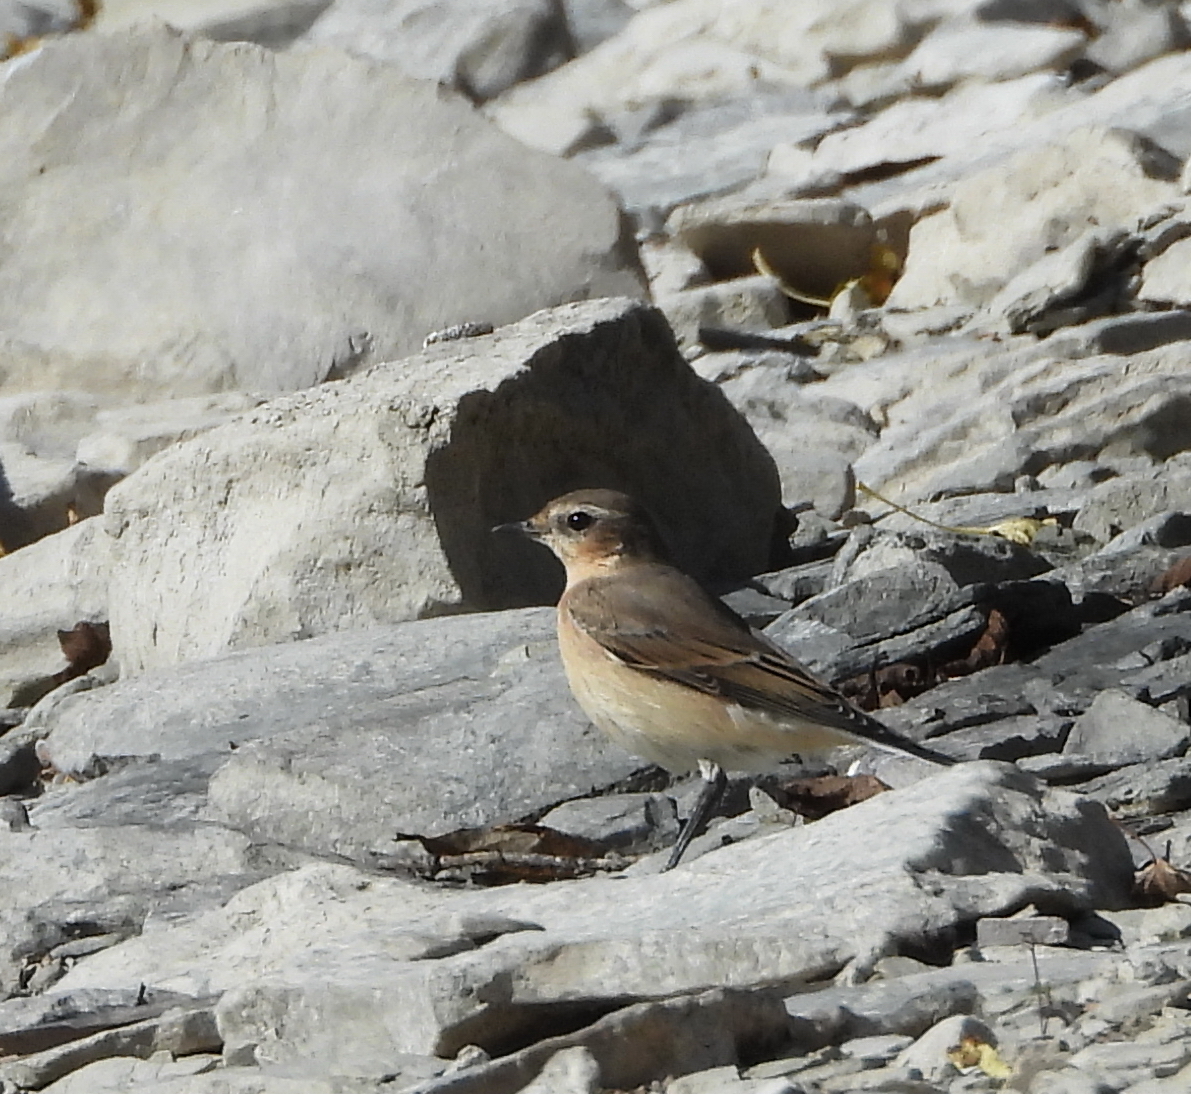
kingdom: Animalia
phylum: Chordata
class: Aves
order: Passeriformes
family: Muscicapidae
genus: Oenanthe
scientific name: Oenanthe oenanthe
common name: Northern wheatear
